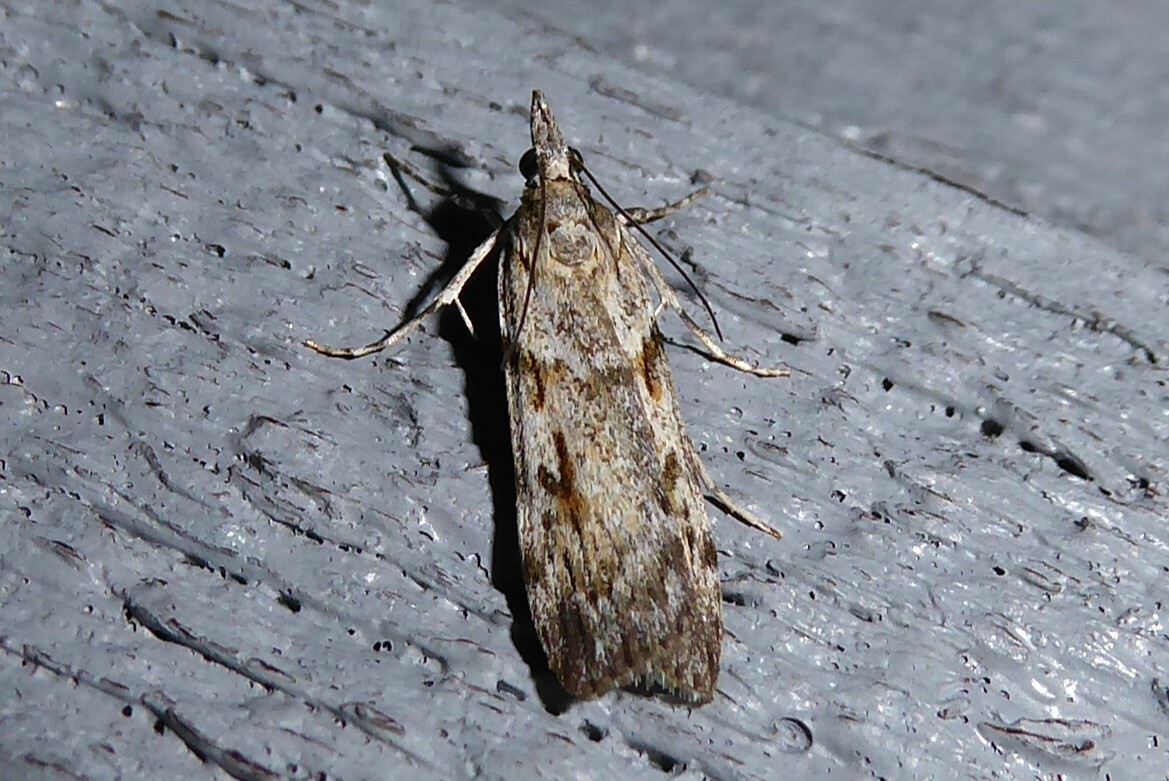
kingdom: Animalia
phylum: Arthropoda
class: Insecta
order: Lepidoptera
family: Crambidae
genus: Scoparia
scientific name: Scoparia halopis
